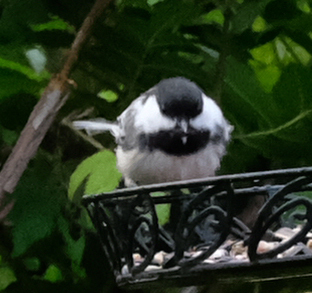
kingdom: Animalia
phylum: Chordata
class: Aves
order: Passeriformes
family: Paridae
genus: Poecile
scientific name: Poecile atricapillus
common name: Black-capped chickadee
